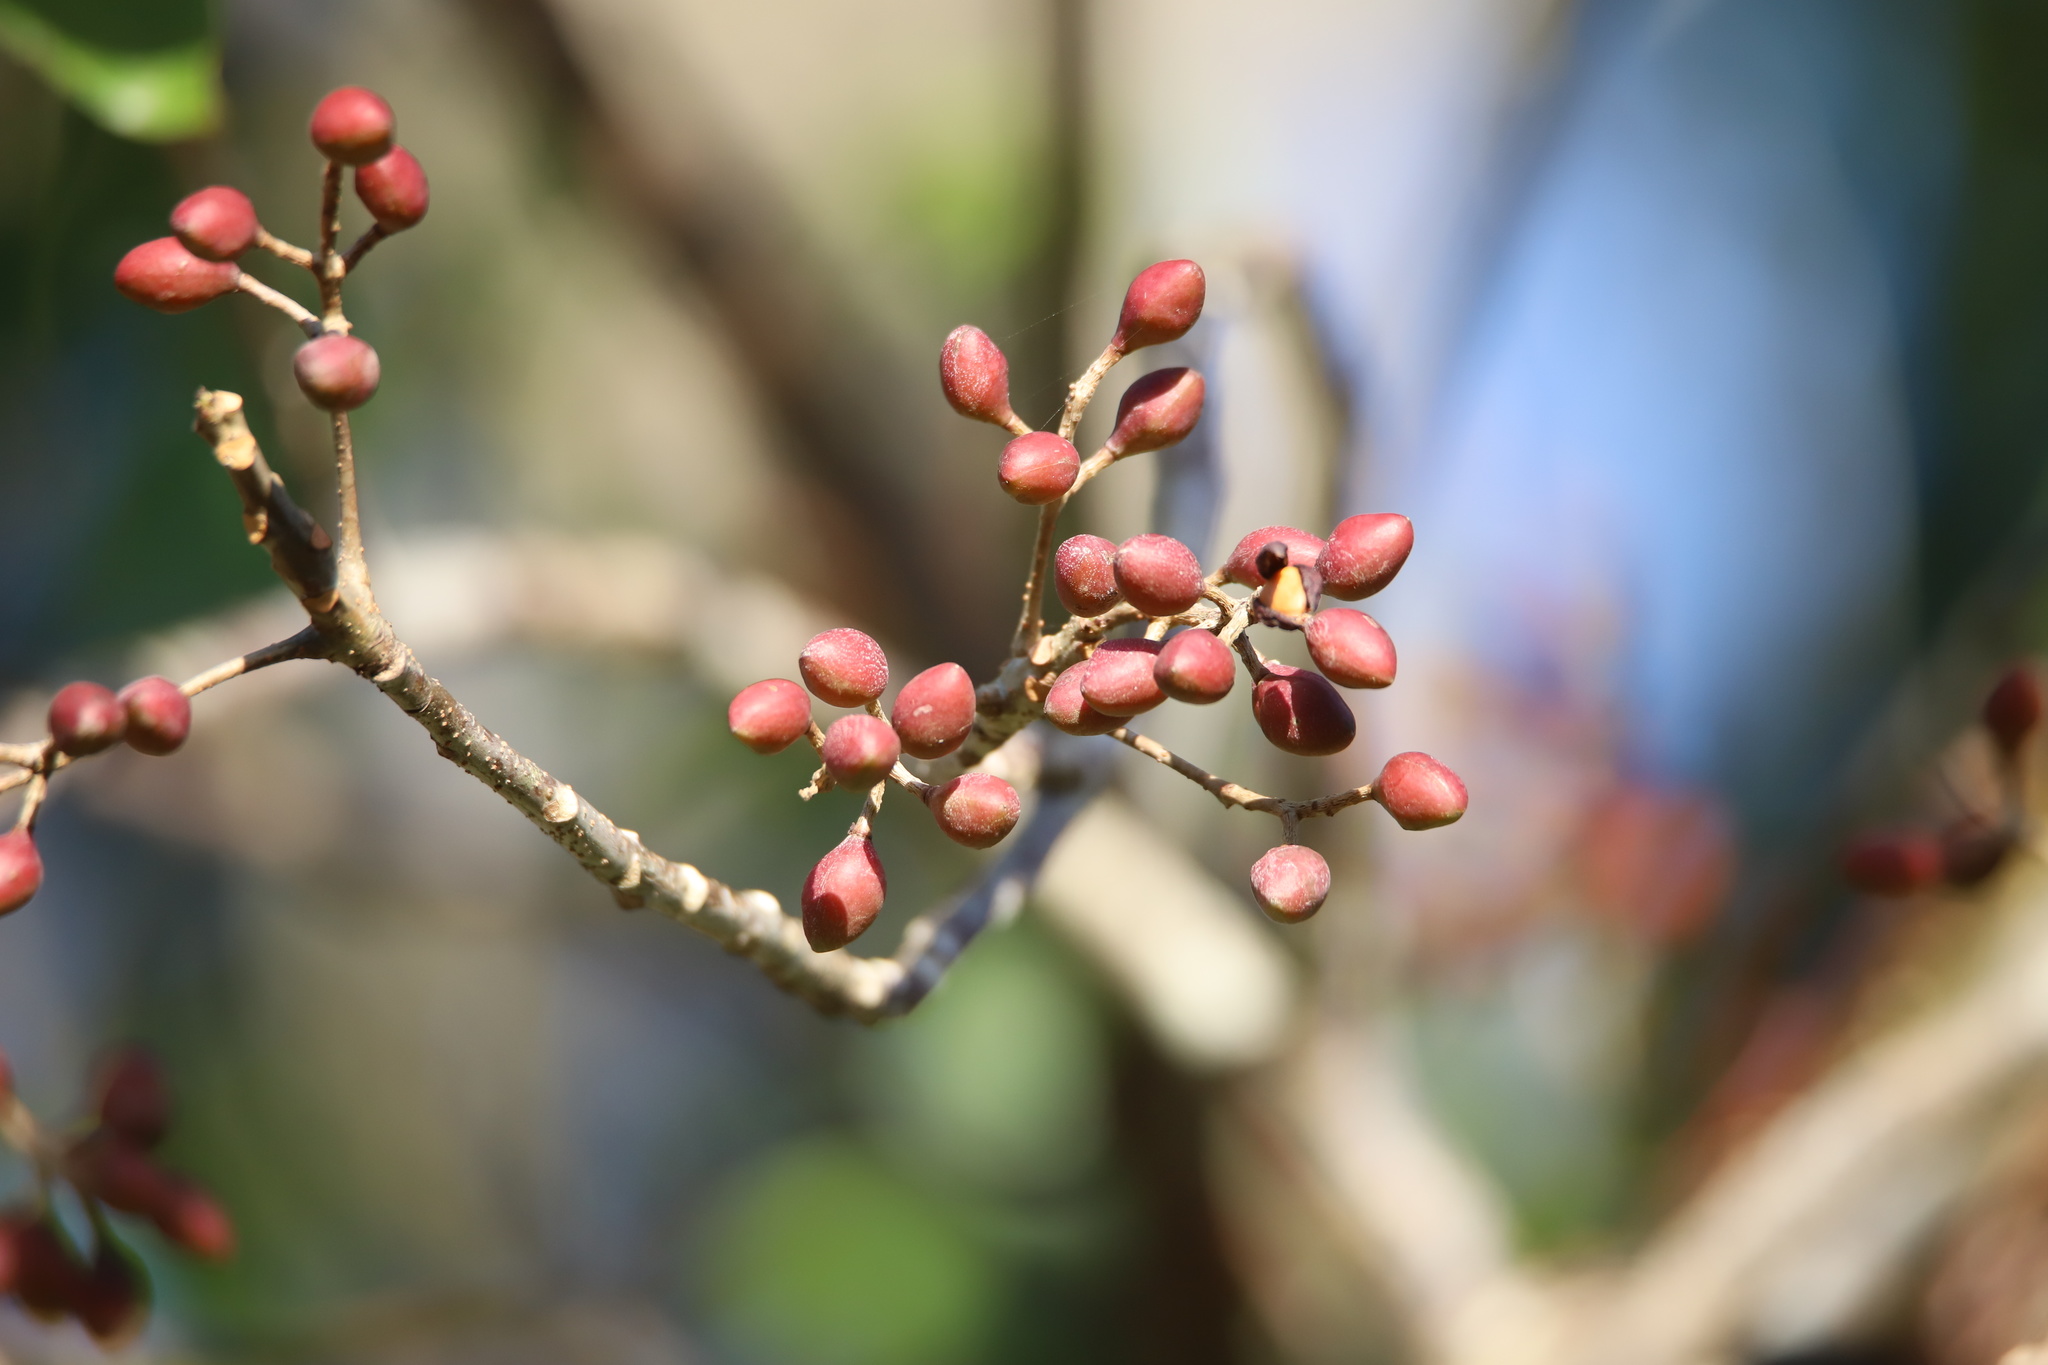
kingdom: Plantae
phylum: Tracheophyta
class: Magnoliopsida
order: Sapindales
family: Burseraceae
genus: Bursera
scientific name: Bursera simaruba
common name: Turpentine tree
